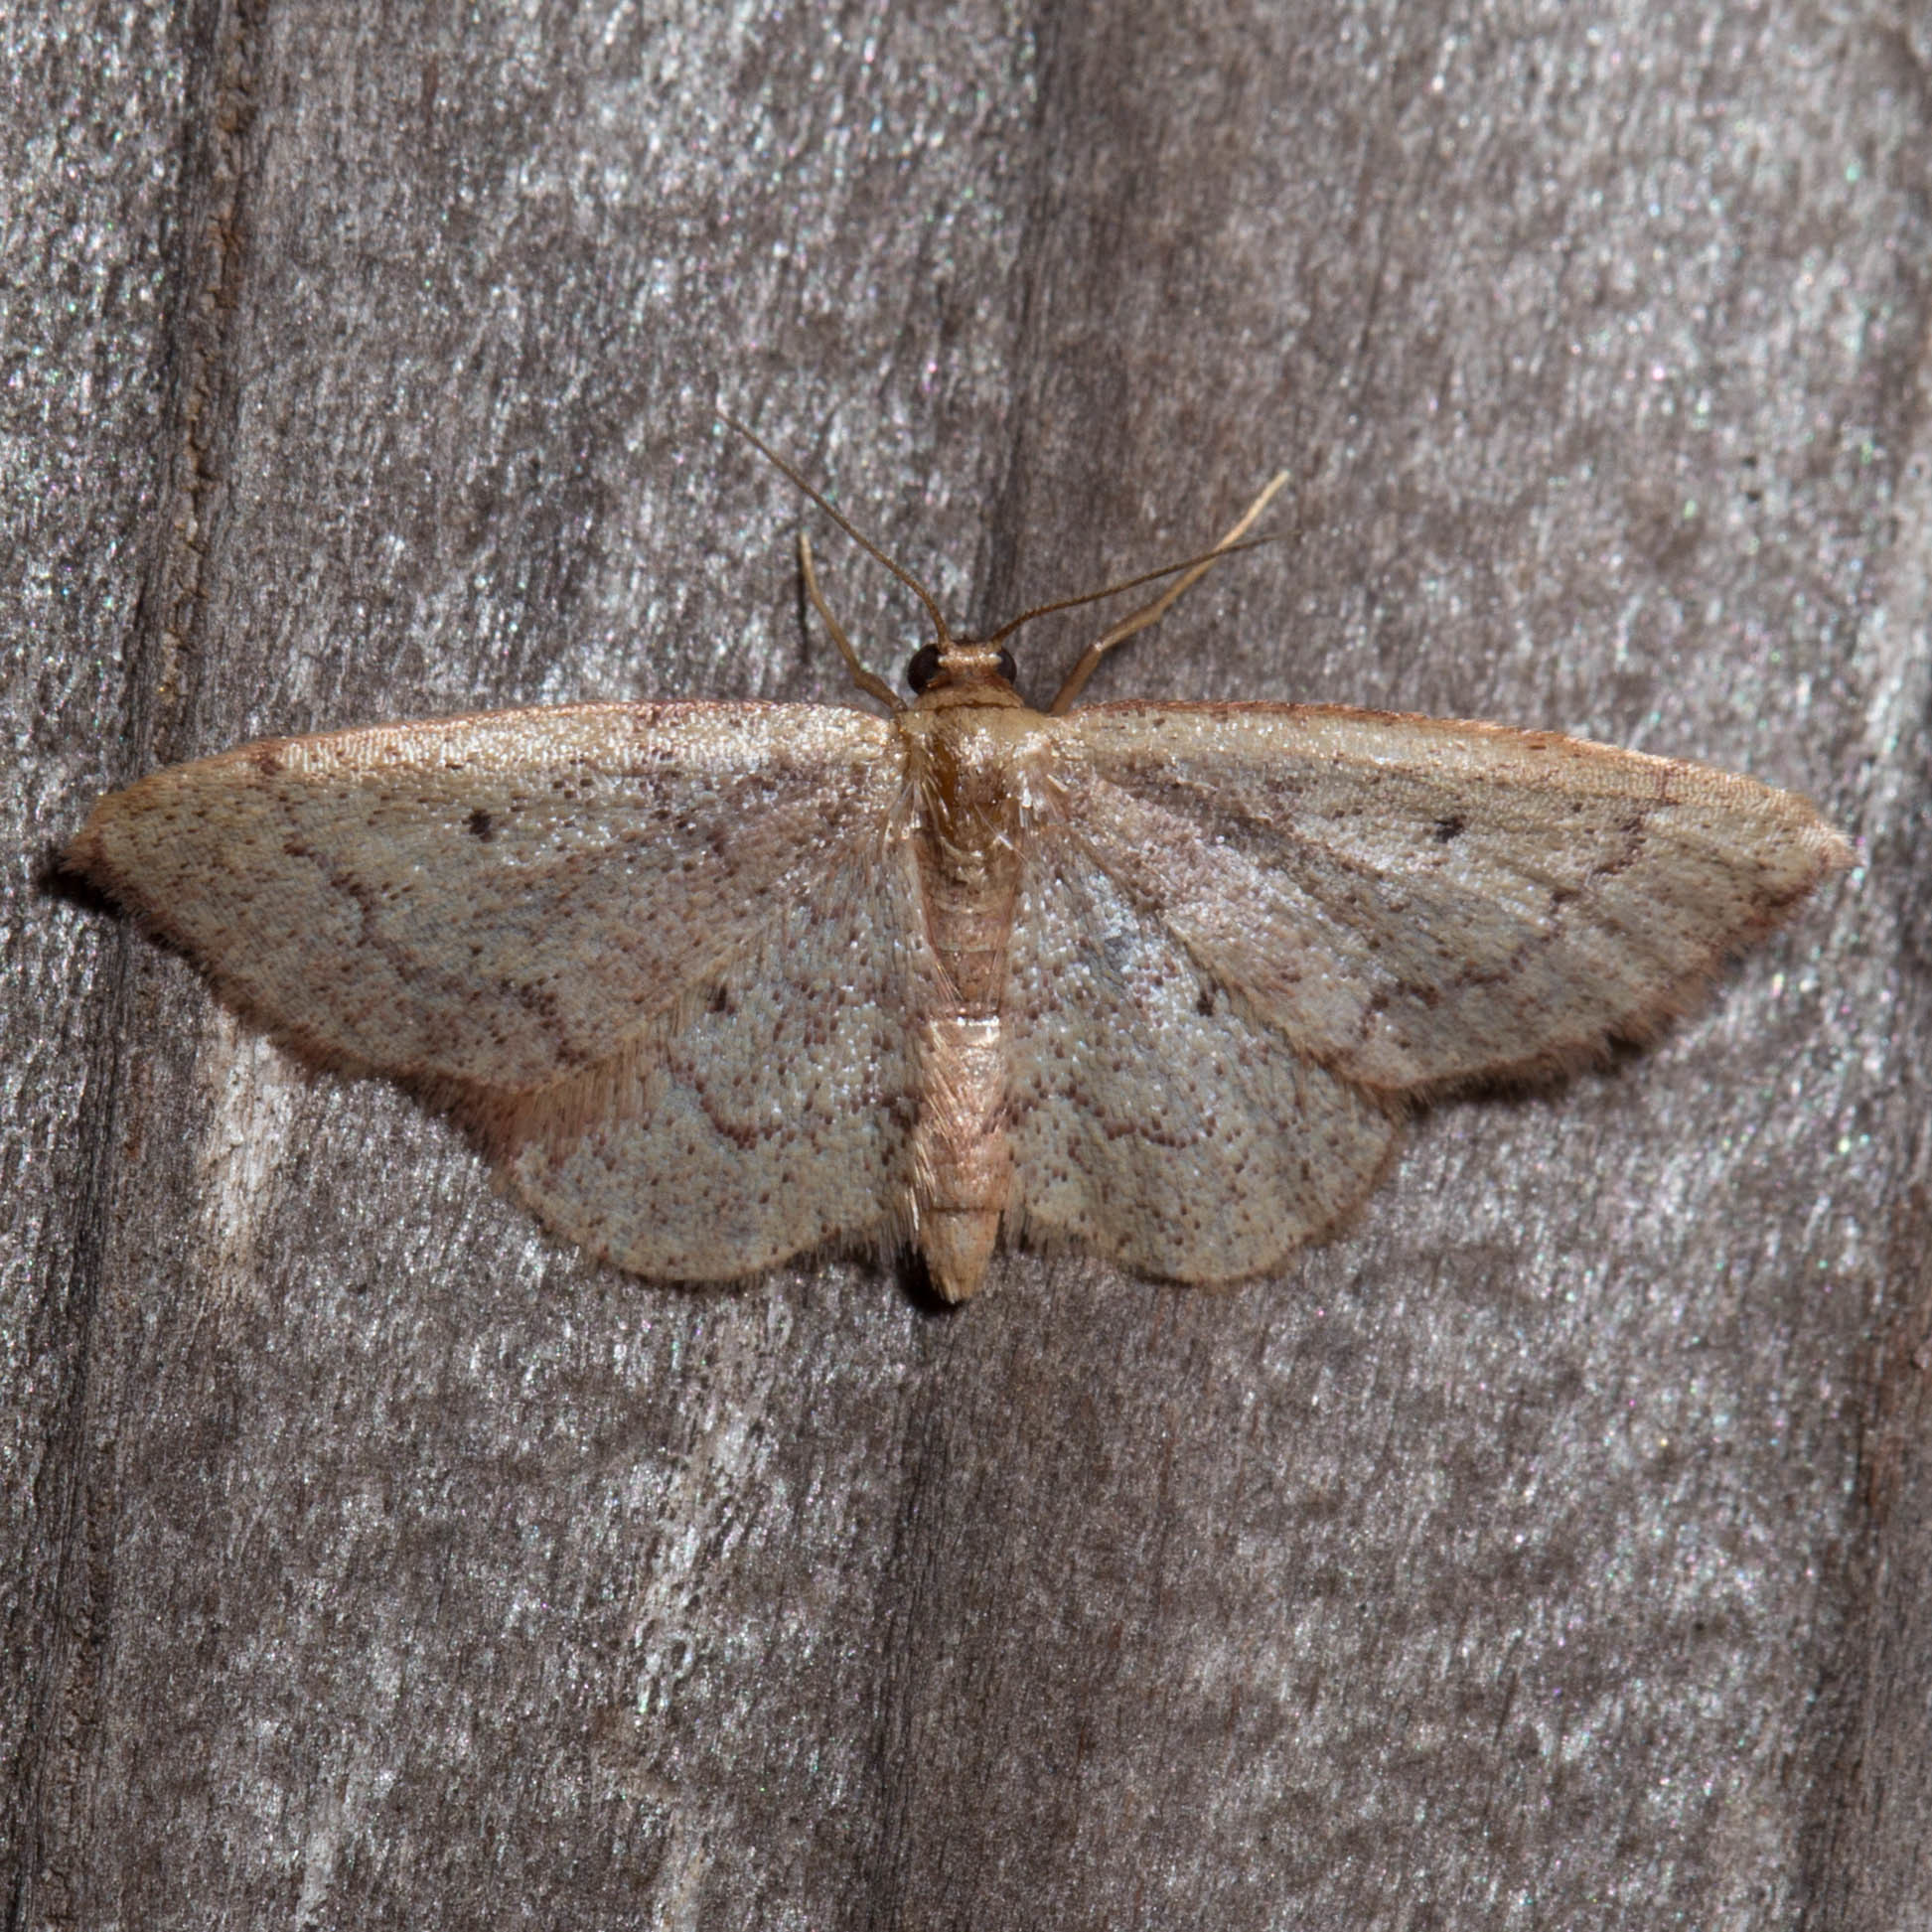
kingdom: Animalia
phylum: Arthropoda
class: Insecta
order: Lepidoptera
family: Geometridae
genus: Idaea
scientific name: Idaea eremiata
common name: Straw wave moth
